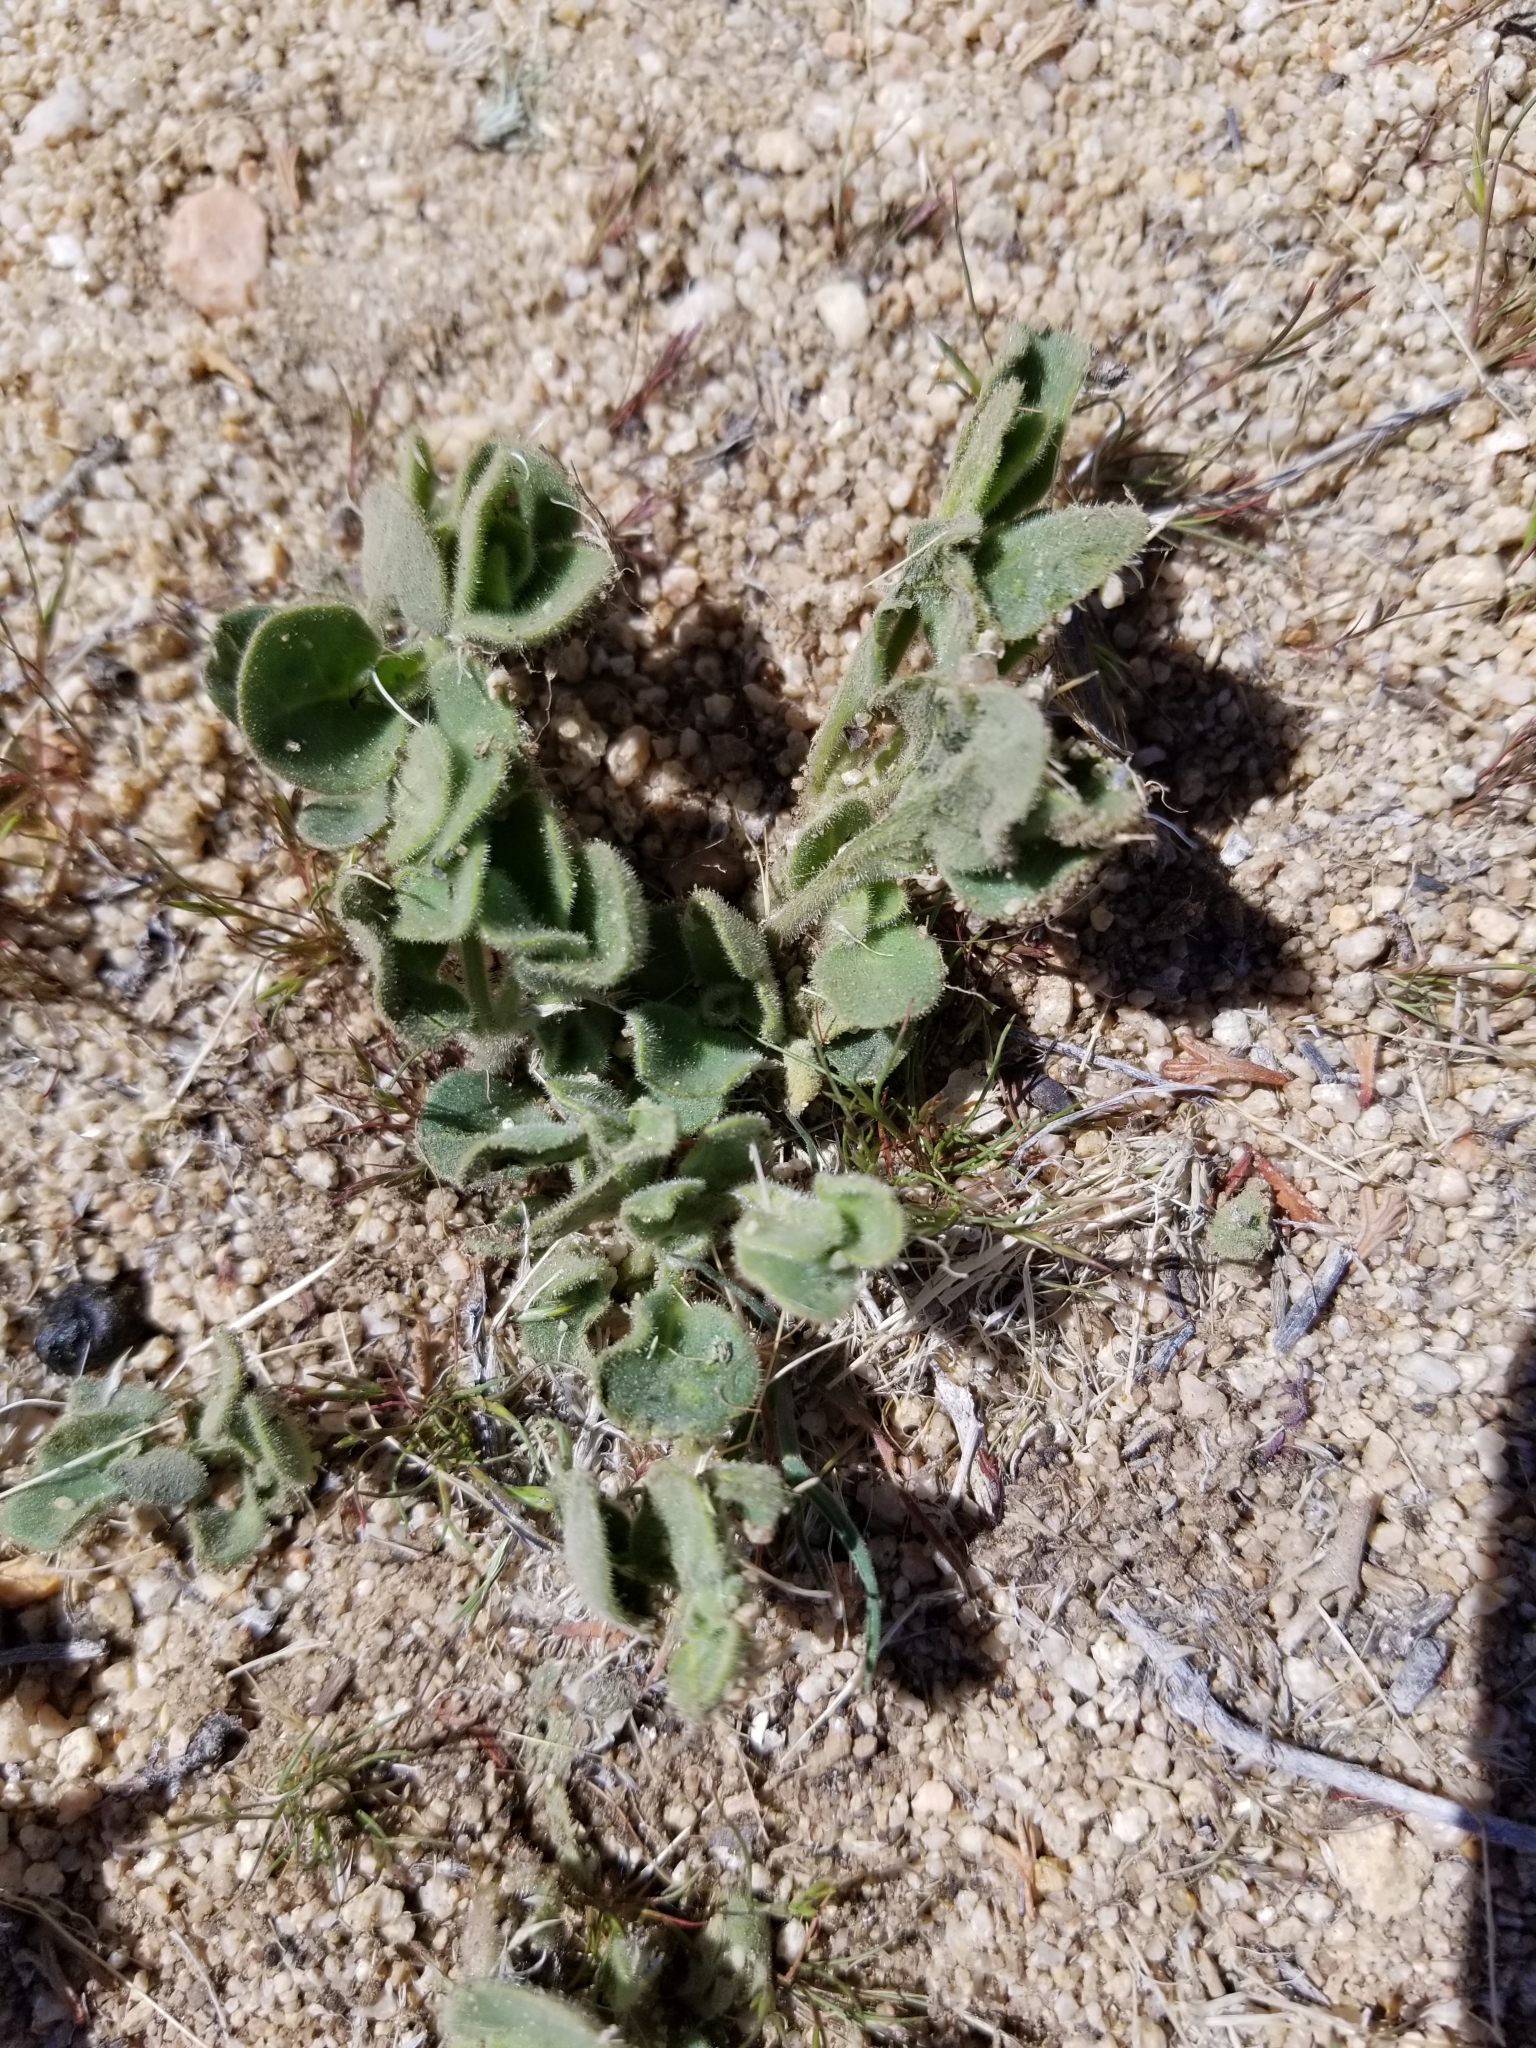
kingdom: Plantae
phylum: Tracheophyta
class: Magnoliopsida
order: Caryophyllales
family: Nyctaginaceae
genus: Mirabilis
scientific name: Mirabilis laevis
